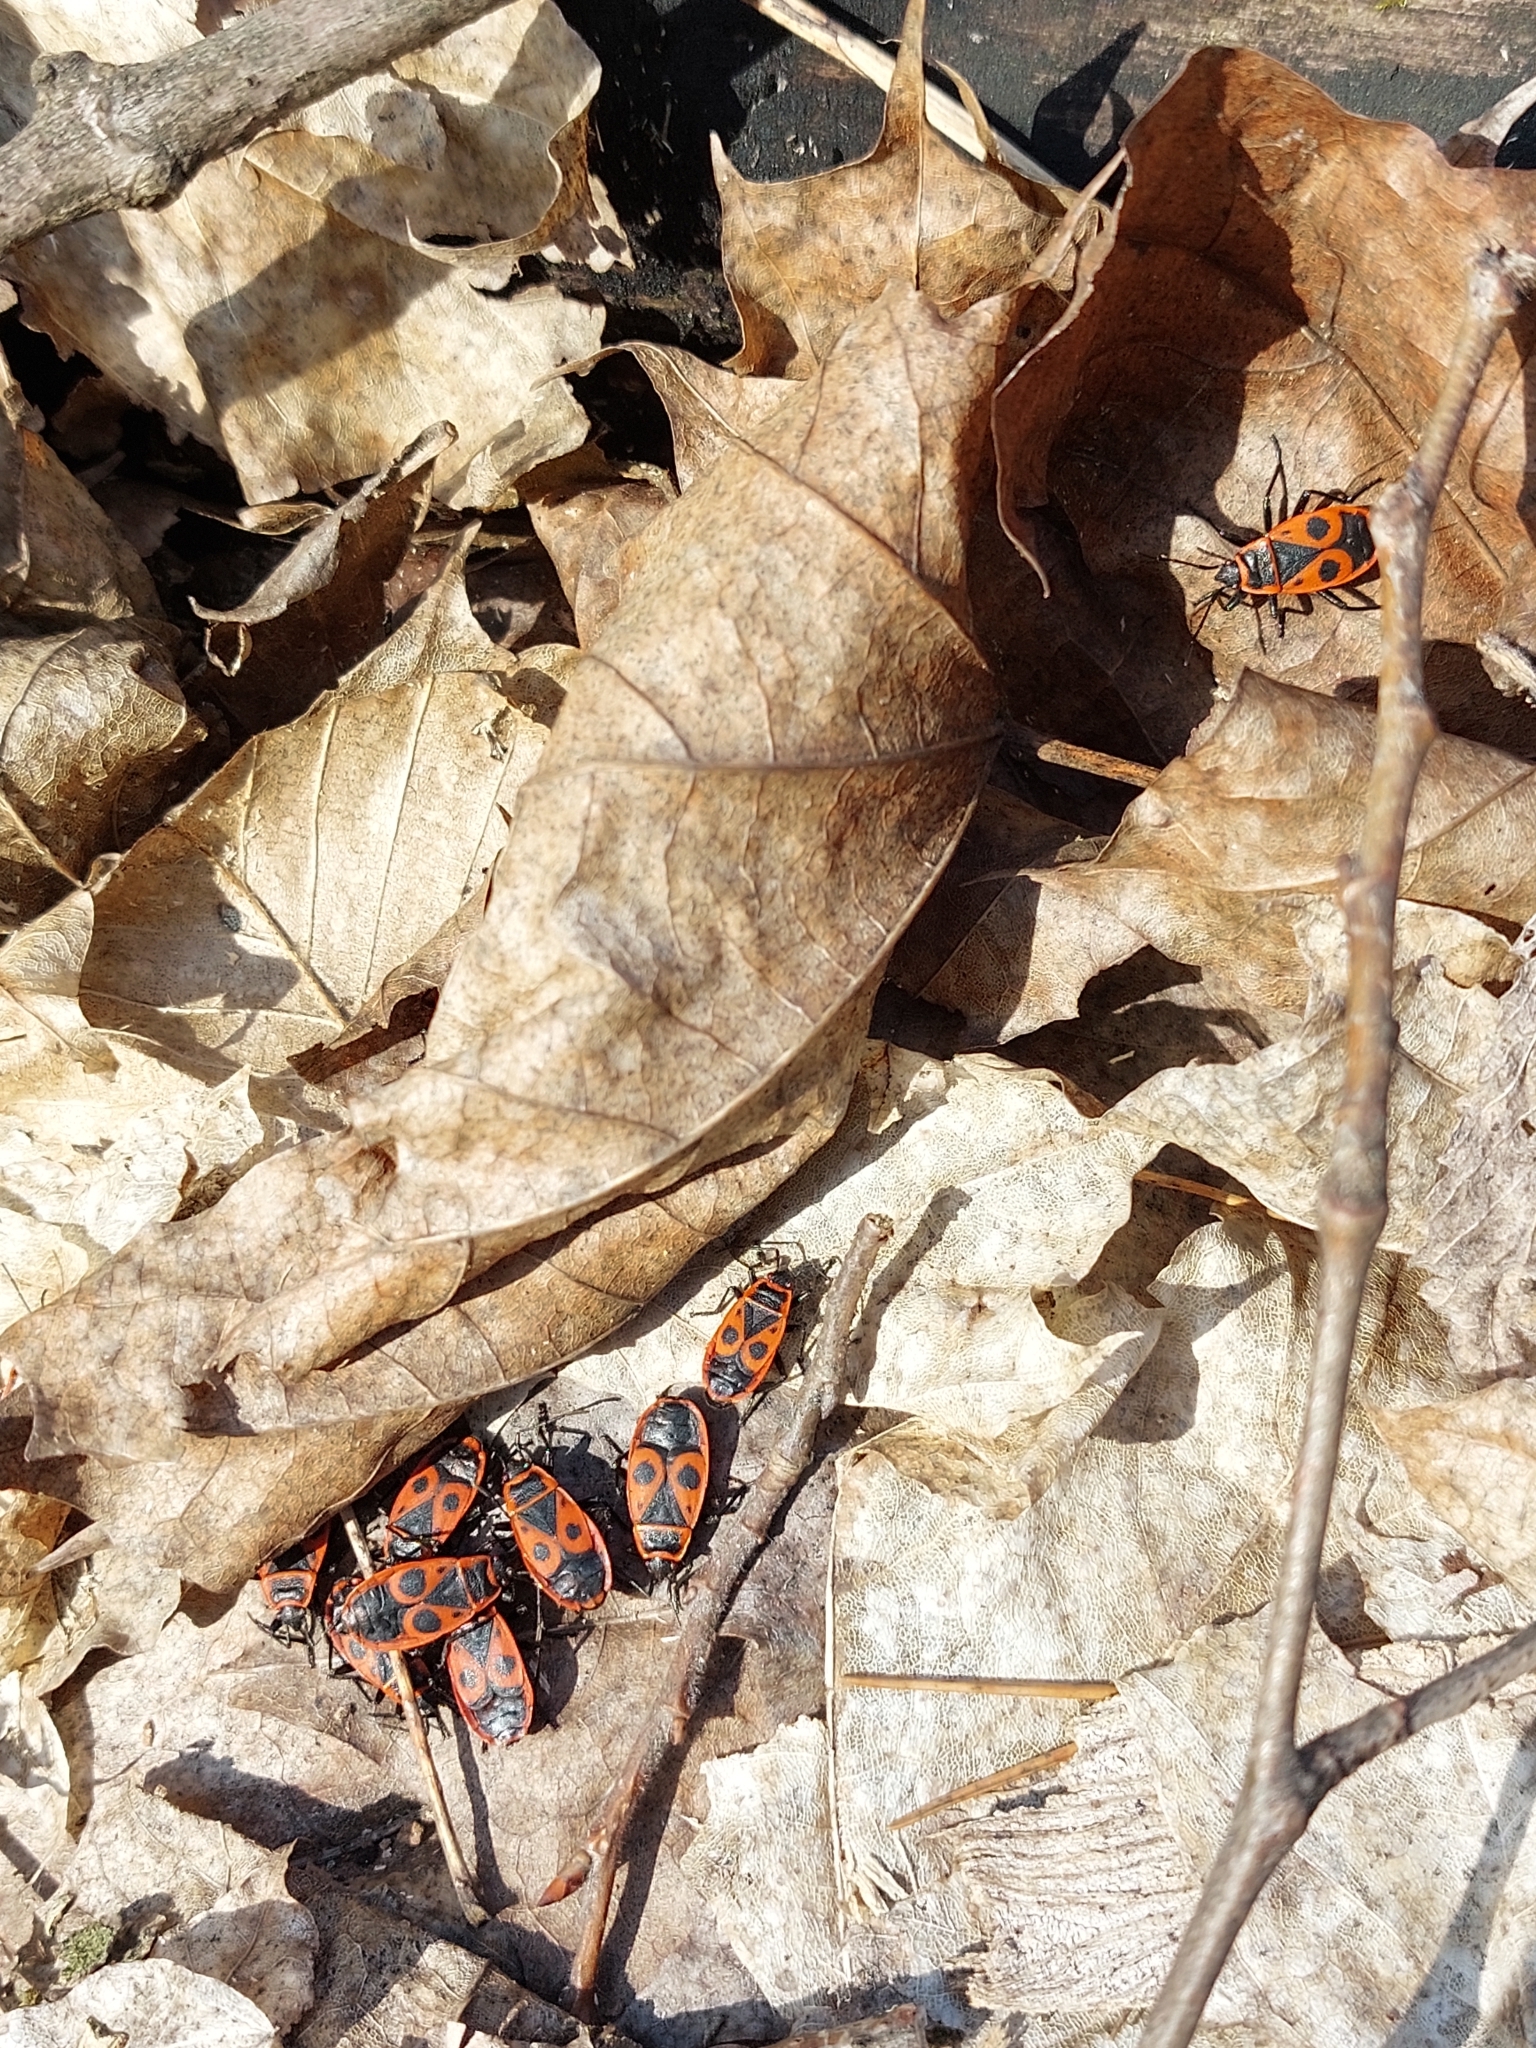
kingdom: Animalia
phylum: Arthropoda
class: Insecta
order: Hemiptera
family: Pyrrhocoridae
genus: Pyrrhocoris
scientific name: Pyrrhocoris apterus
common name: Firebug
